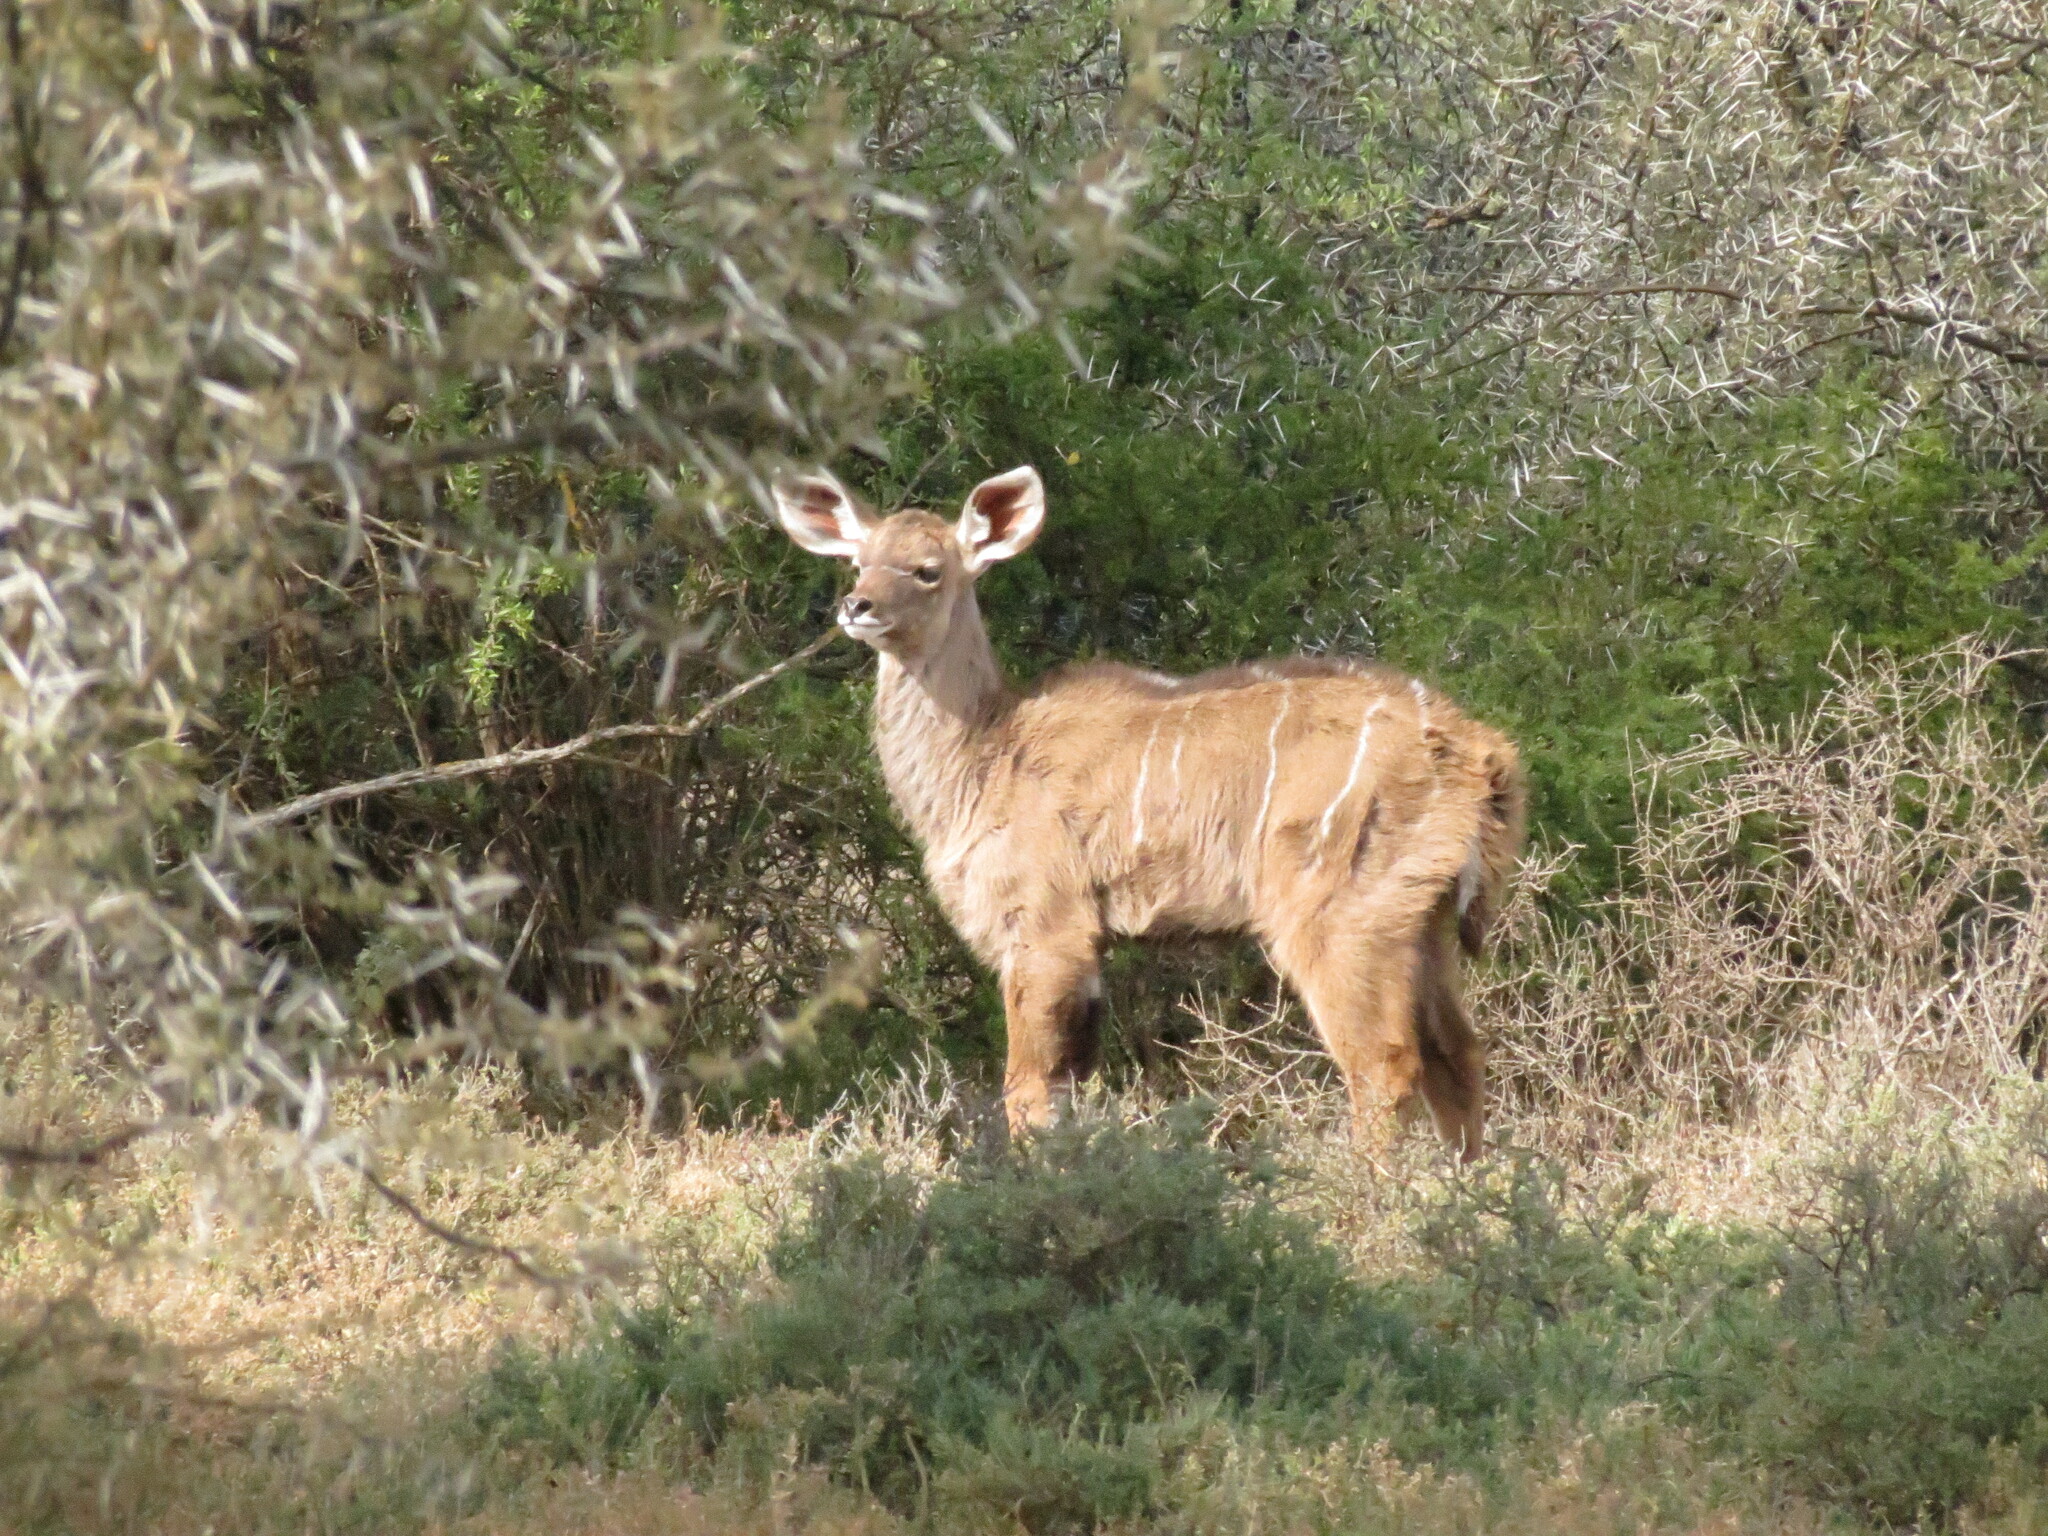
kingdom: Animalia
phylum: Chordata
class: Mammalia
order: Artiodactyla
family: Bovidae
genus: Tragelaphus
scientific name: Tragelaphus strepsiceros
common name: Greater kudu
